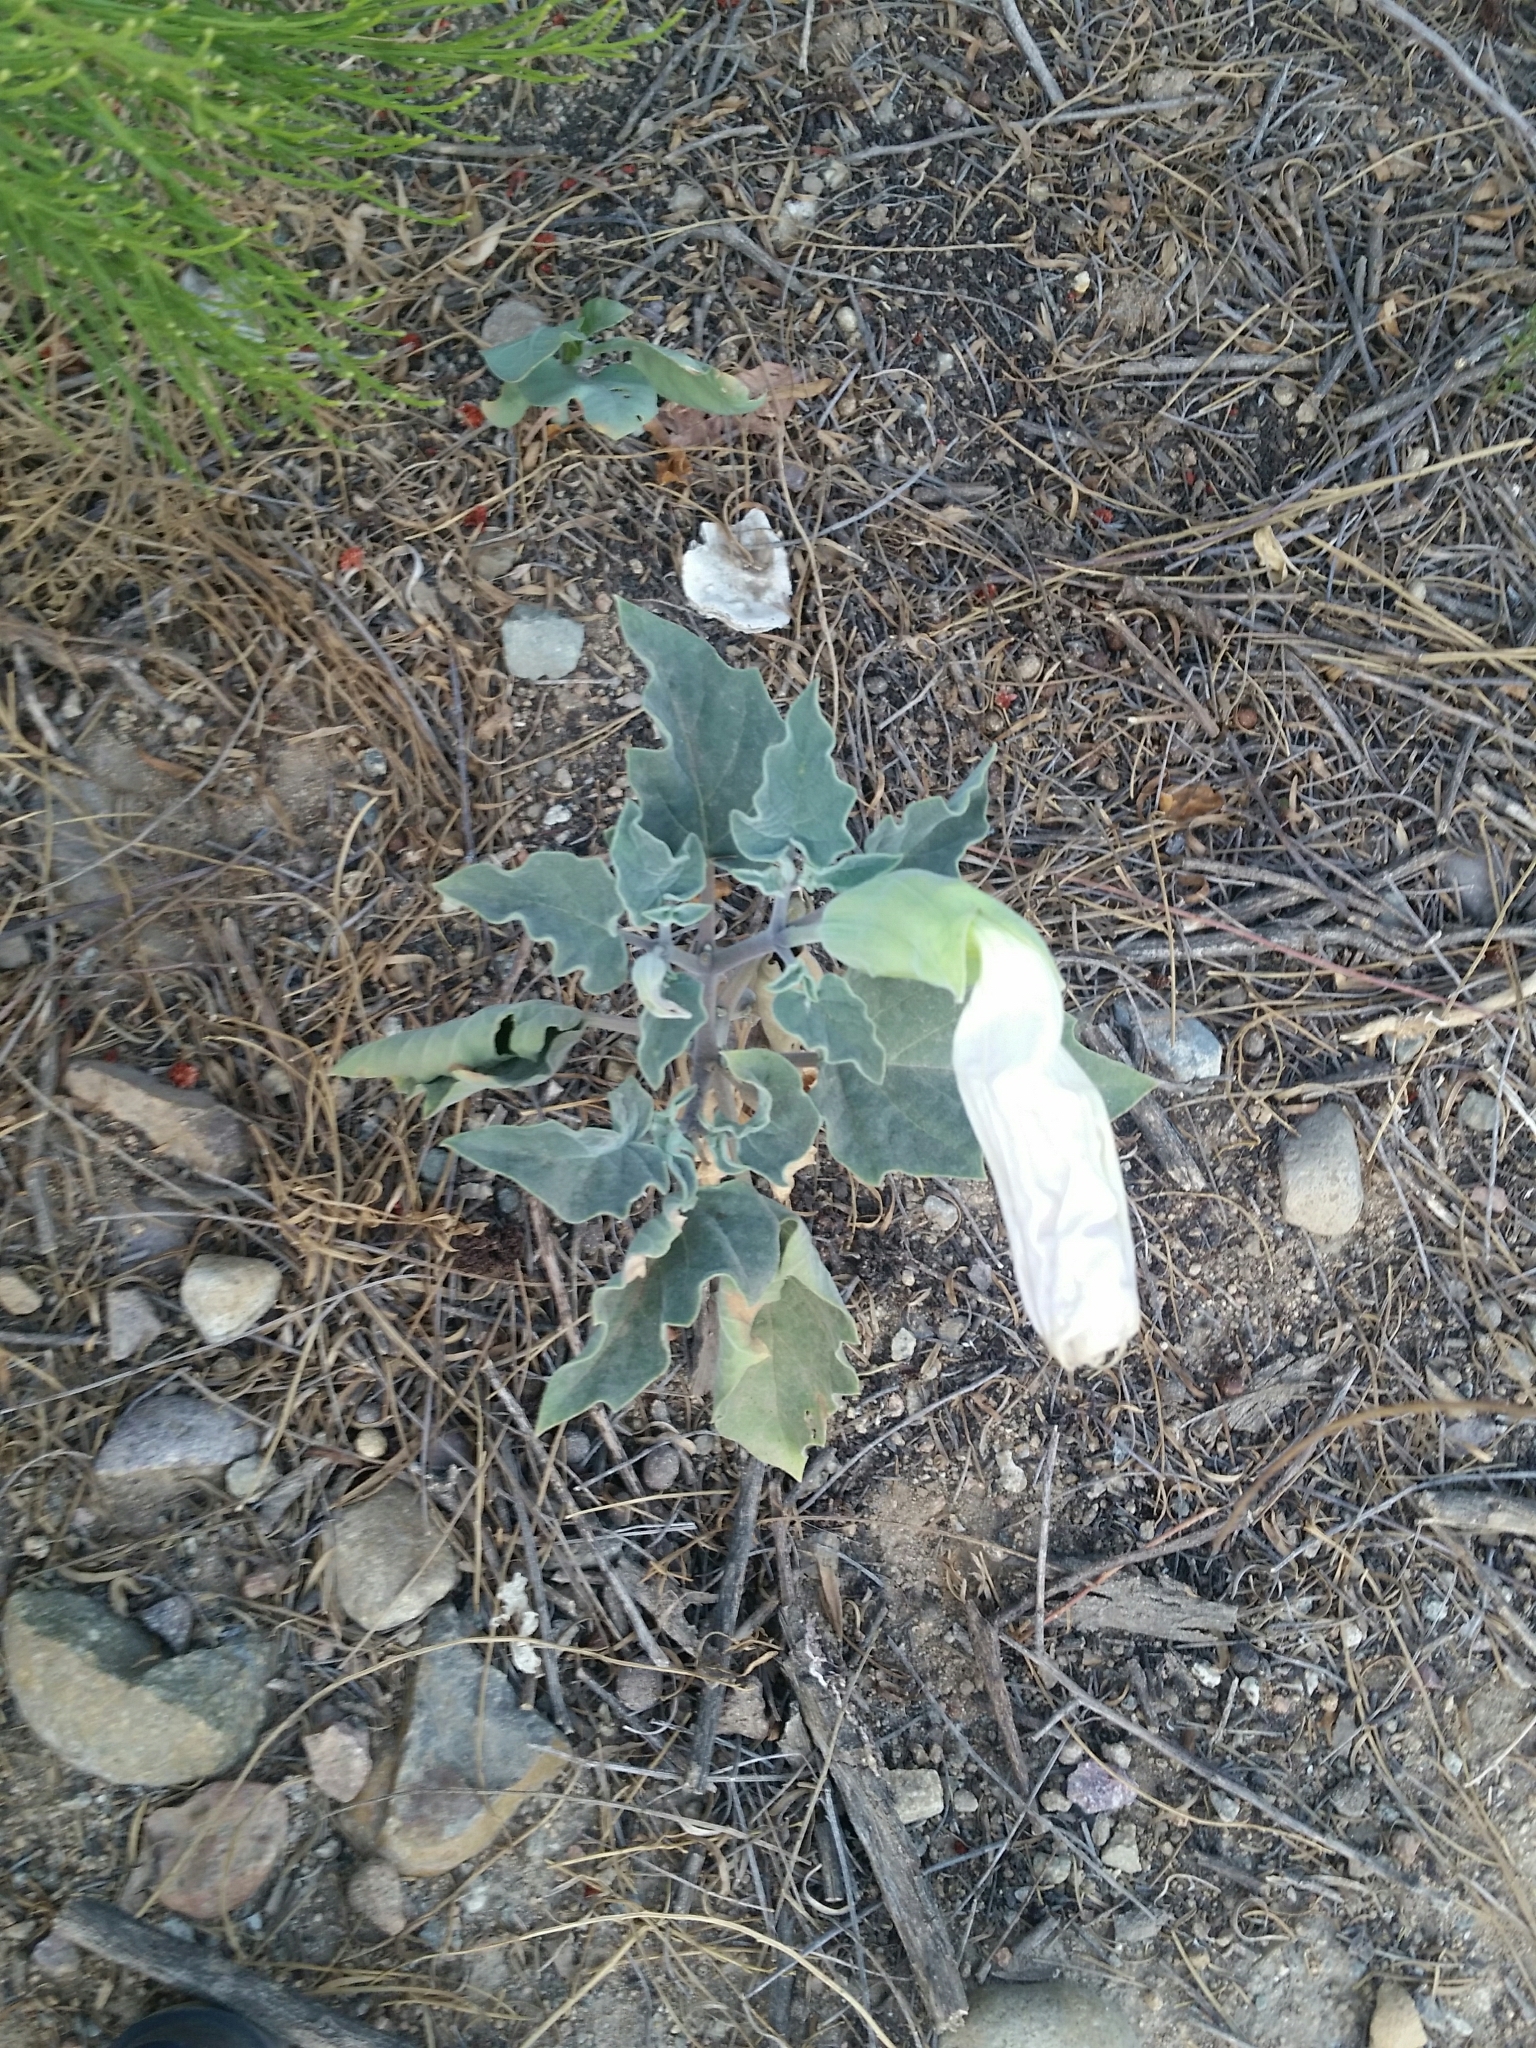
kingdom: Plantae
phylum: Tracheophyta
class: Magnoliopsida
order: Solanales
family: Solanaceae
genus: Datura
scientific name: Datura wrightii
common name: Sacred thorn-apple
